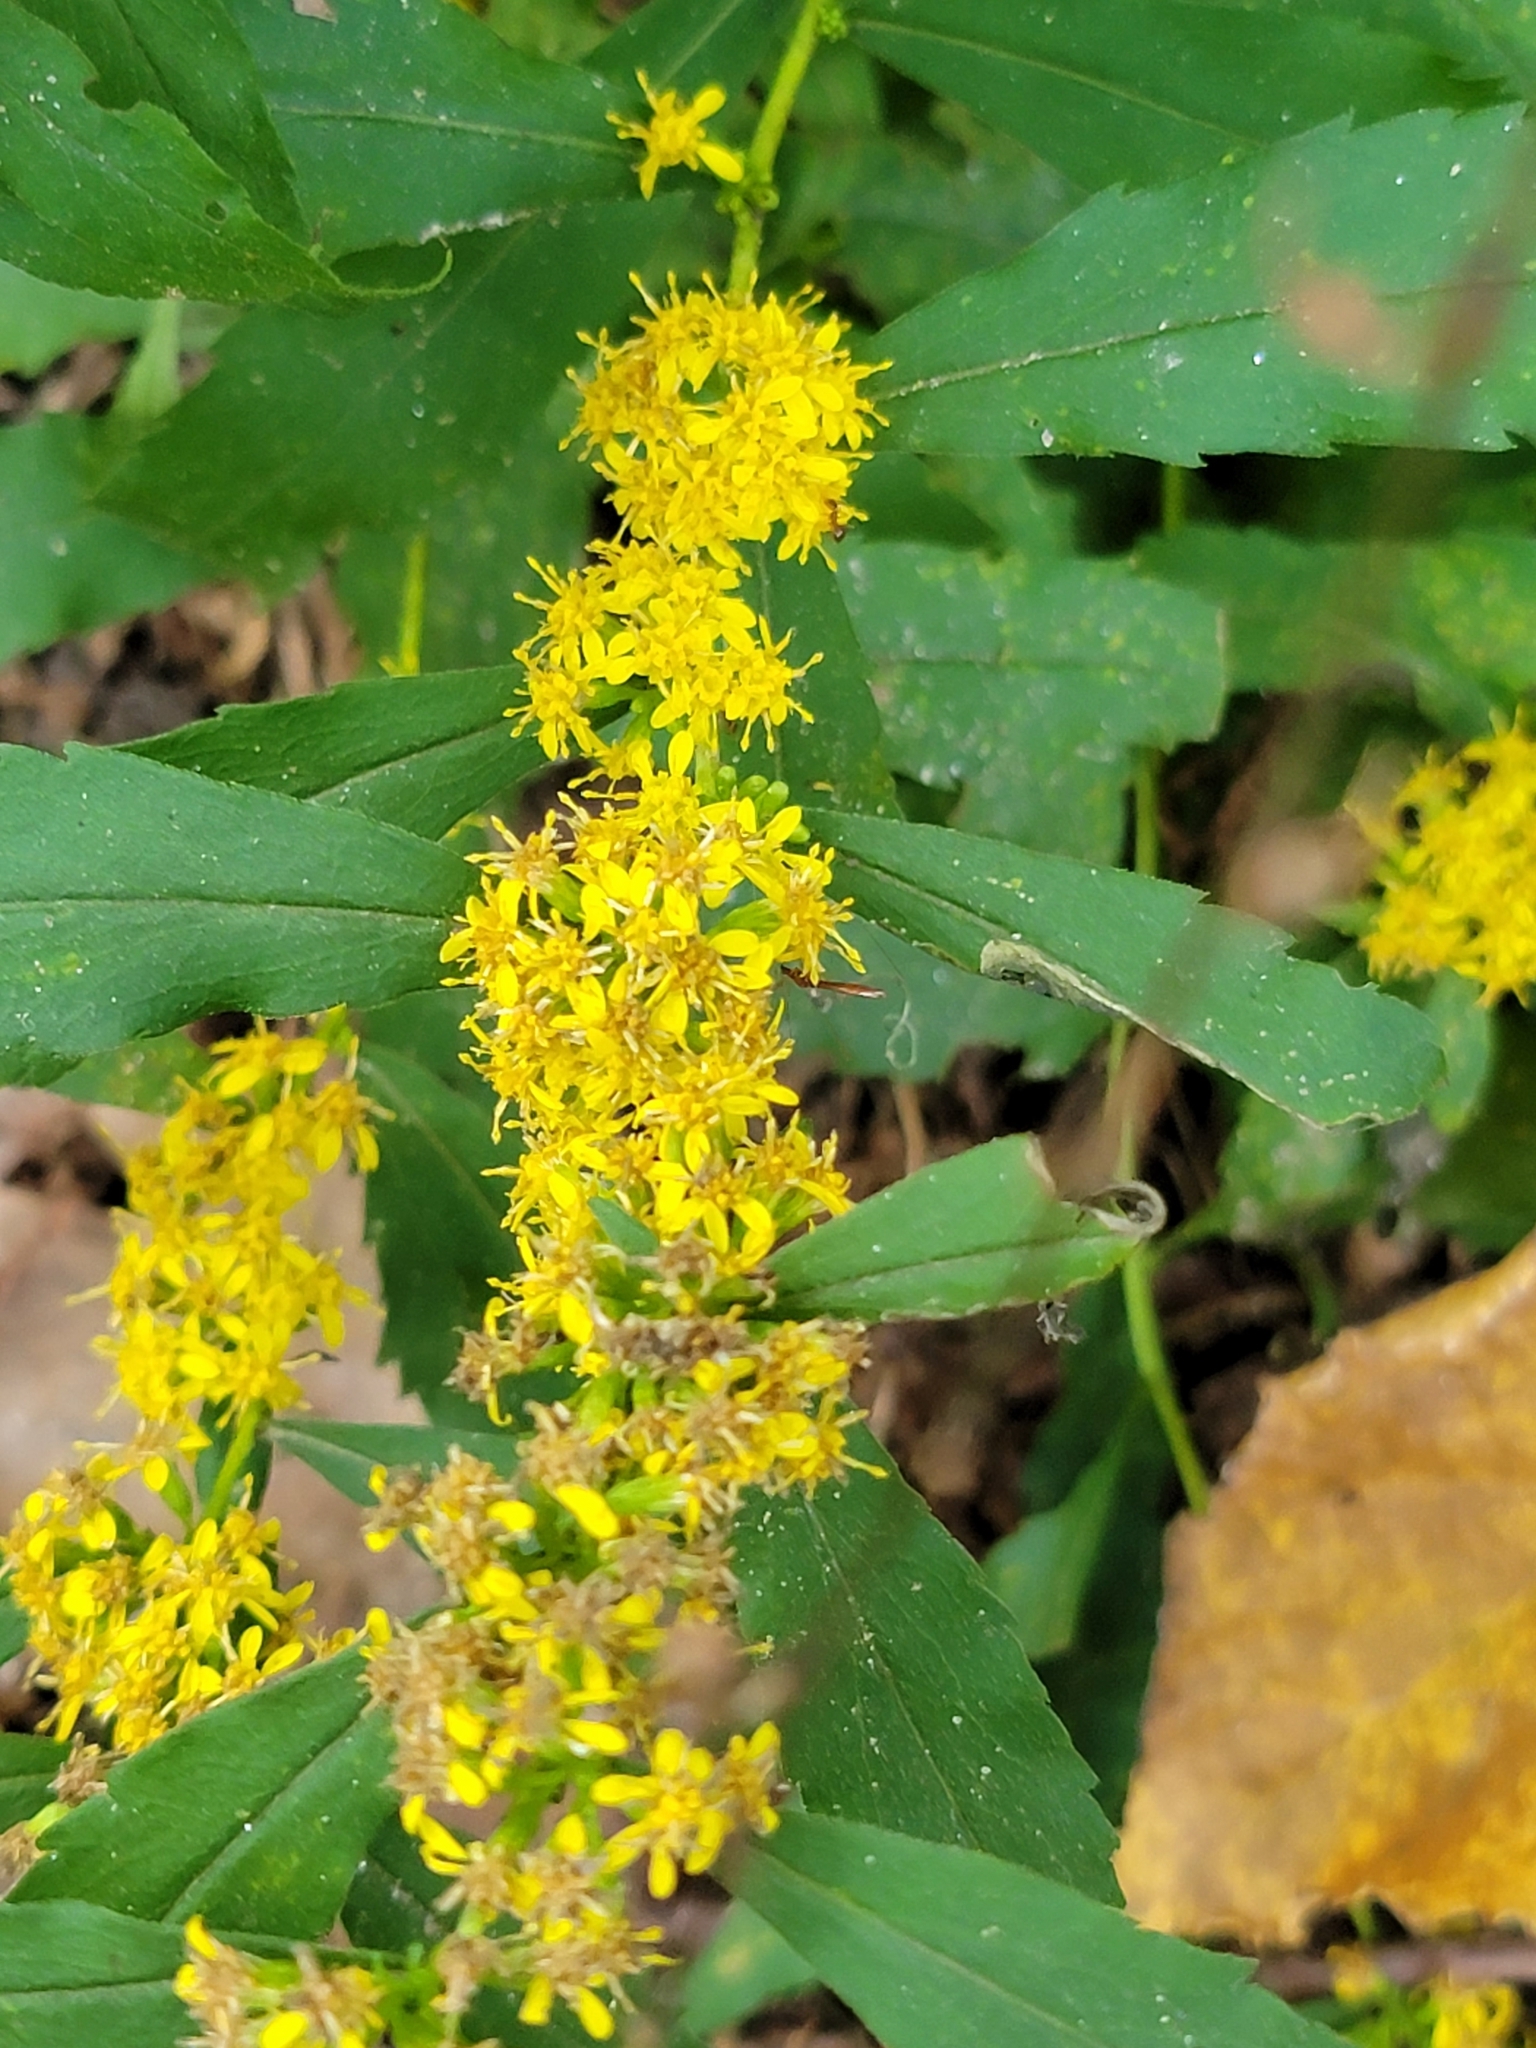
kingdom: Plantae
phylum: Tracheophyta
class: Magnoliopsida
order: Asterales
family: Asteraceae
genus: Solidago
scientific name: Solidago caesia
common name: Woodland goldenrod
